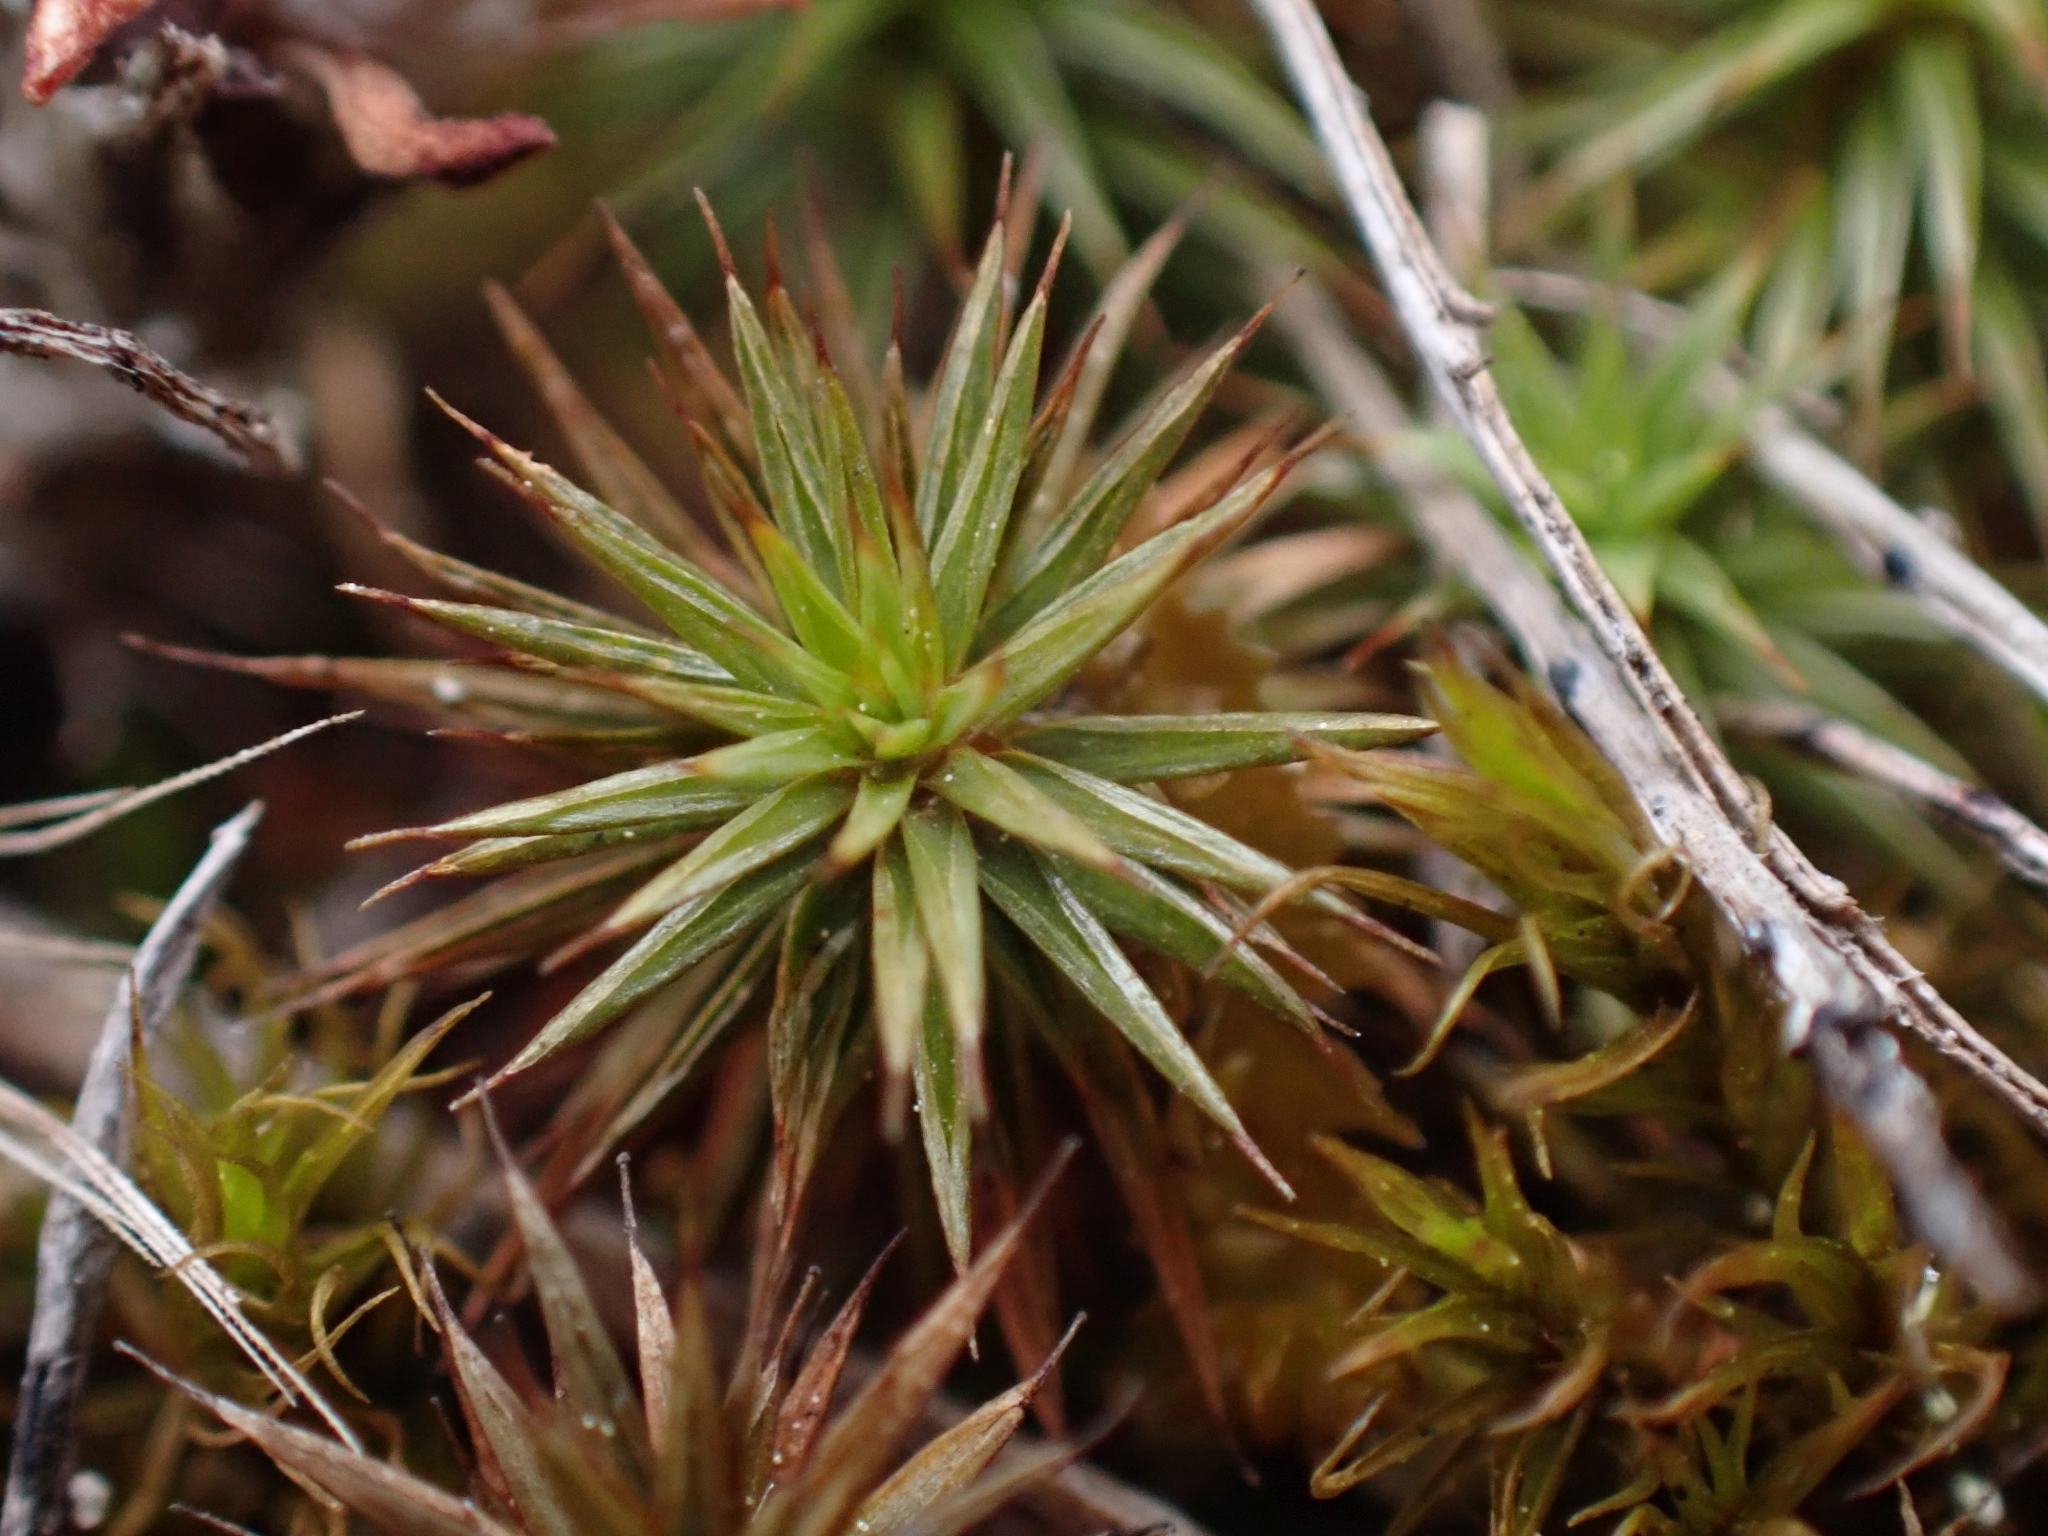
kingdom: Plantae
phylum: Bryophyta
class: Polytrichopsida
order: Polytrichales
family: Polytrichaceae
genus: Polytrichum
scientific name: Polytrichum juniperinum
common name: Juniper haircap moss
